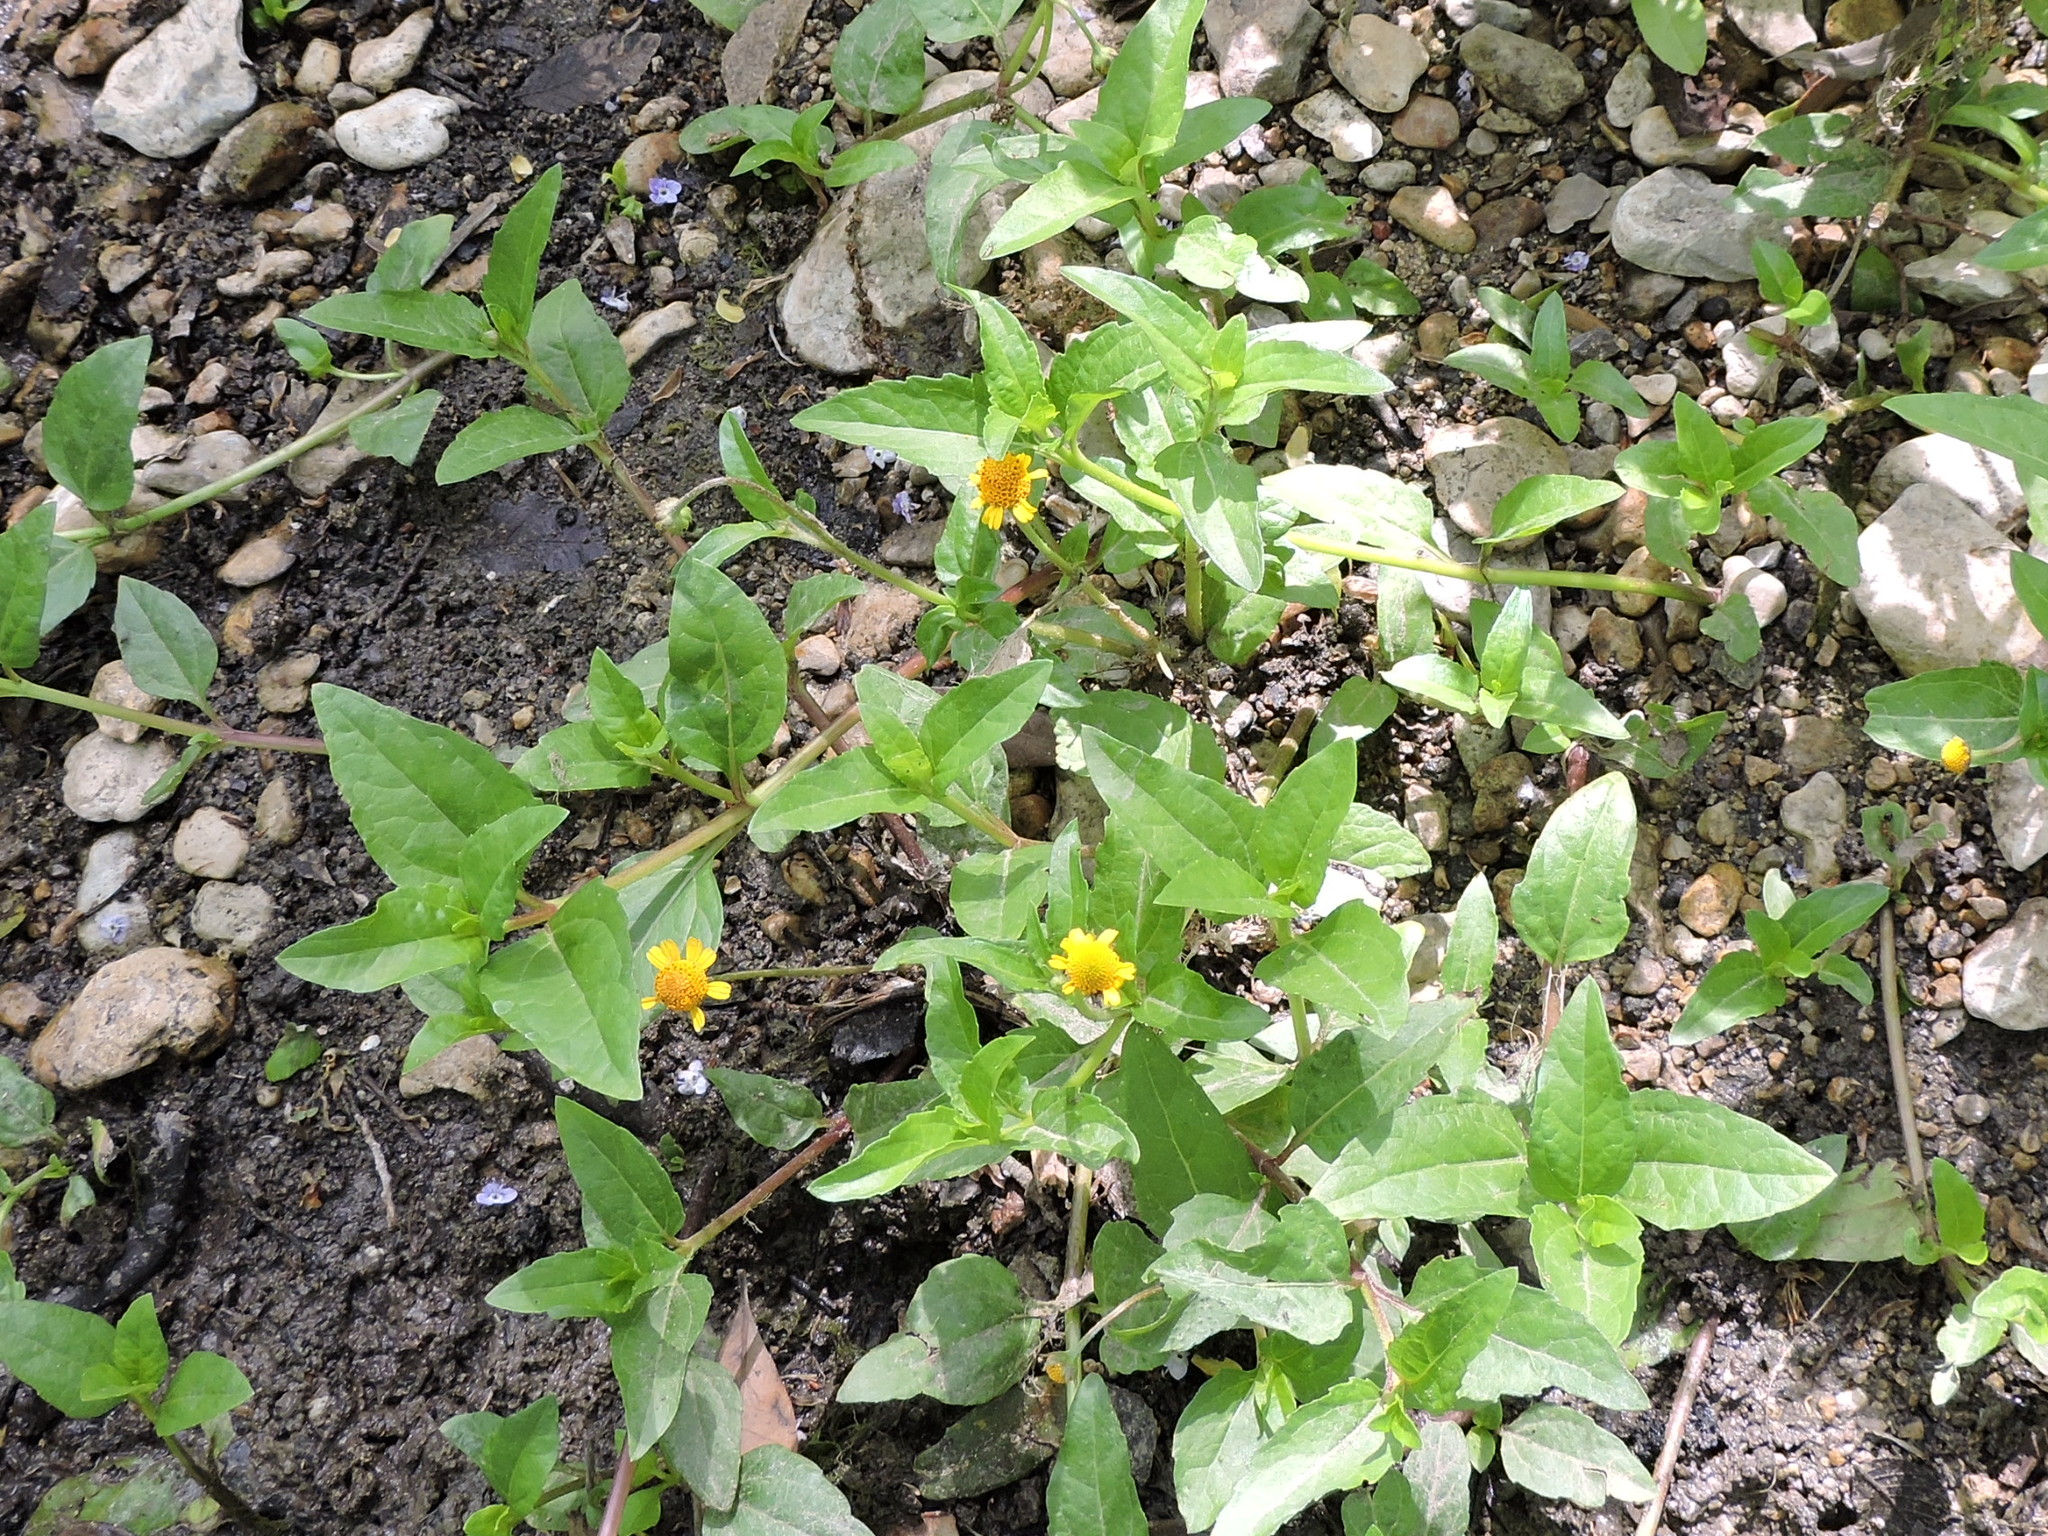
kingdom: Plantae
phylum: Tracheophyta
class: Magnoliopsida
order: Asterales
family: Asteraceae
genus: Acmella
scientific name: Acmella repens
